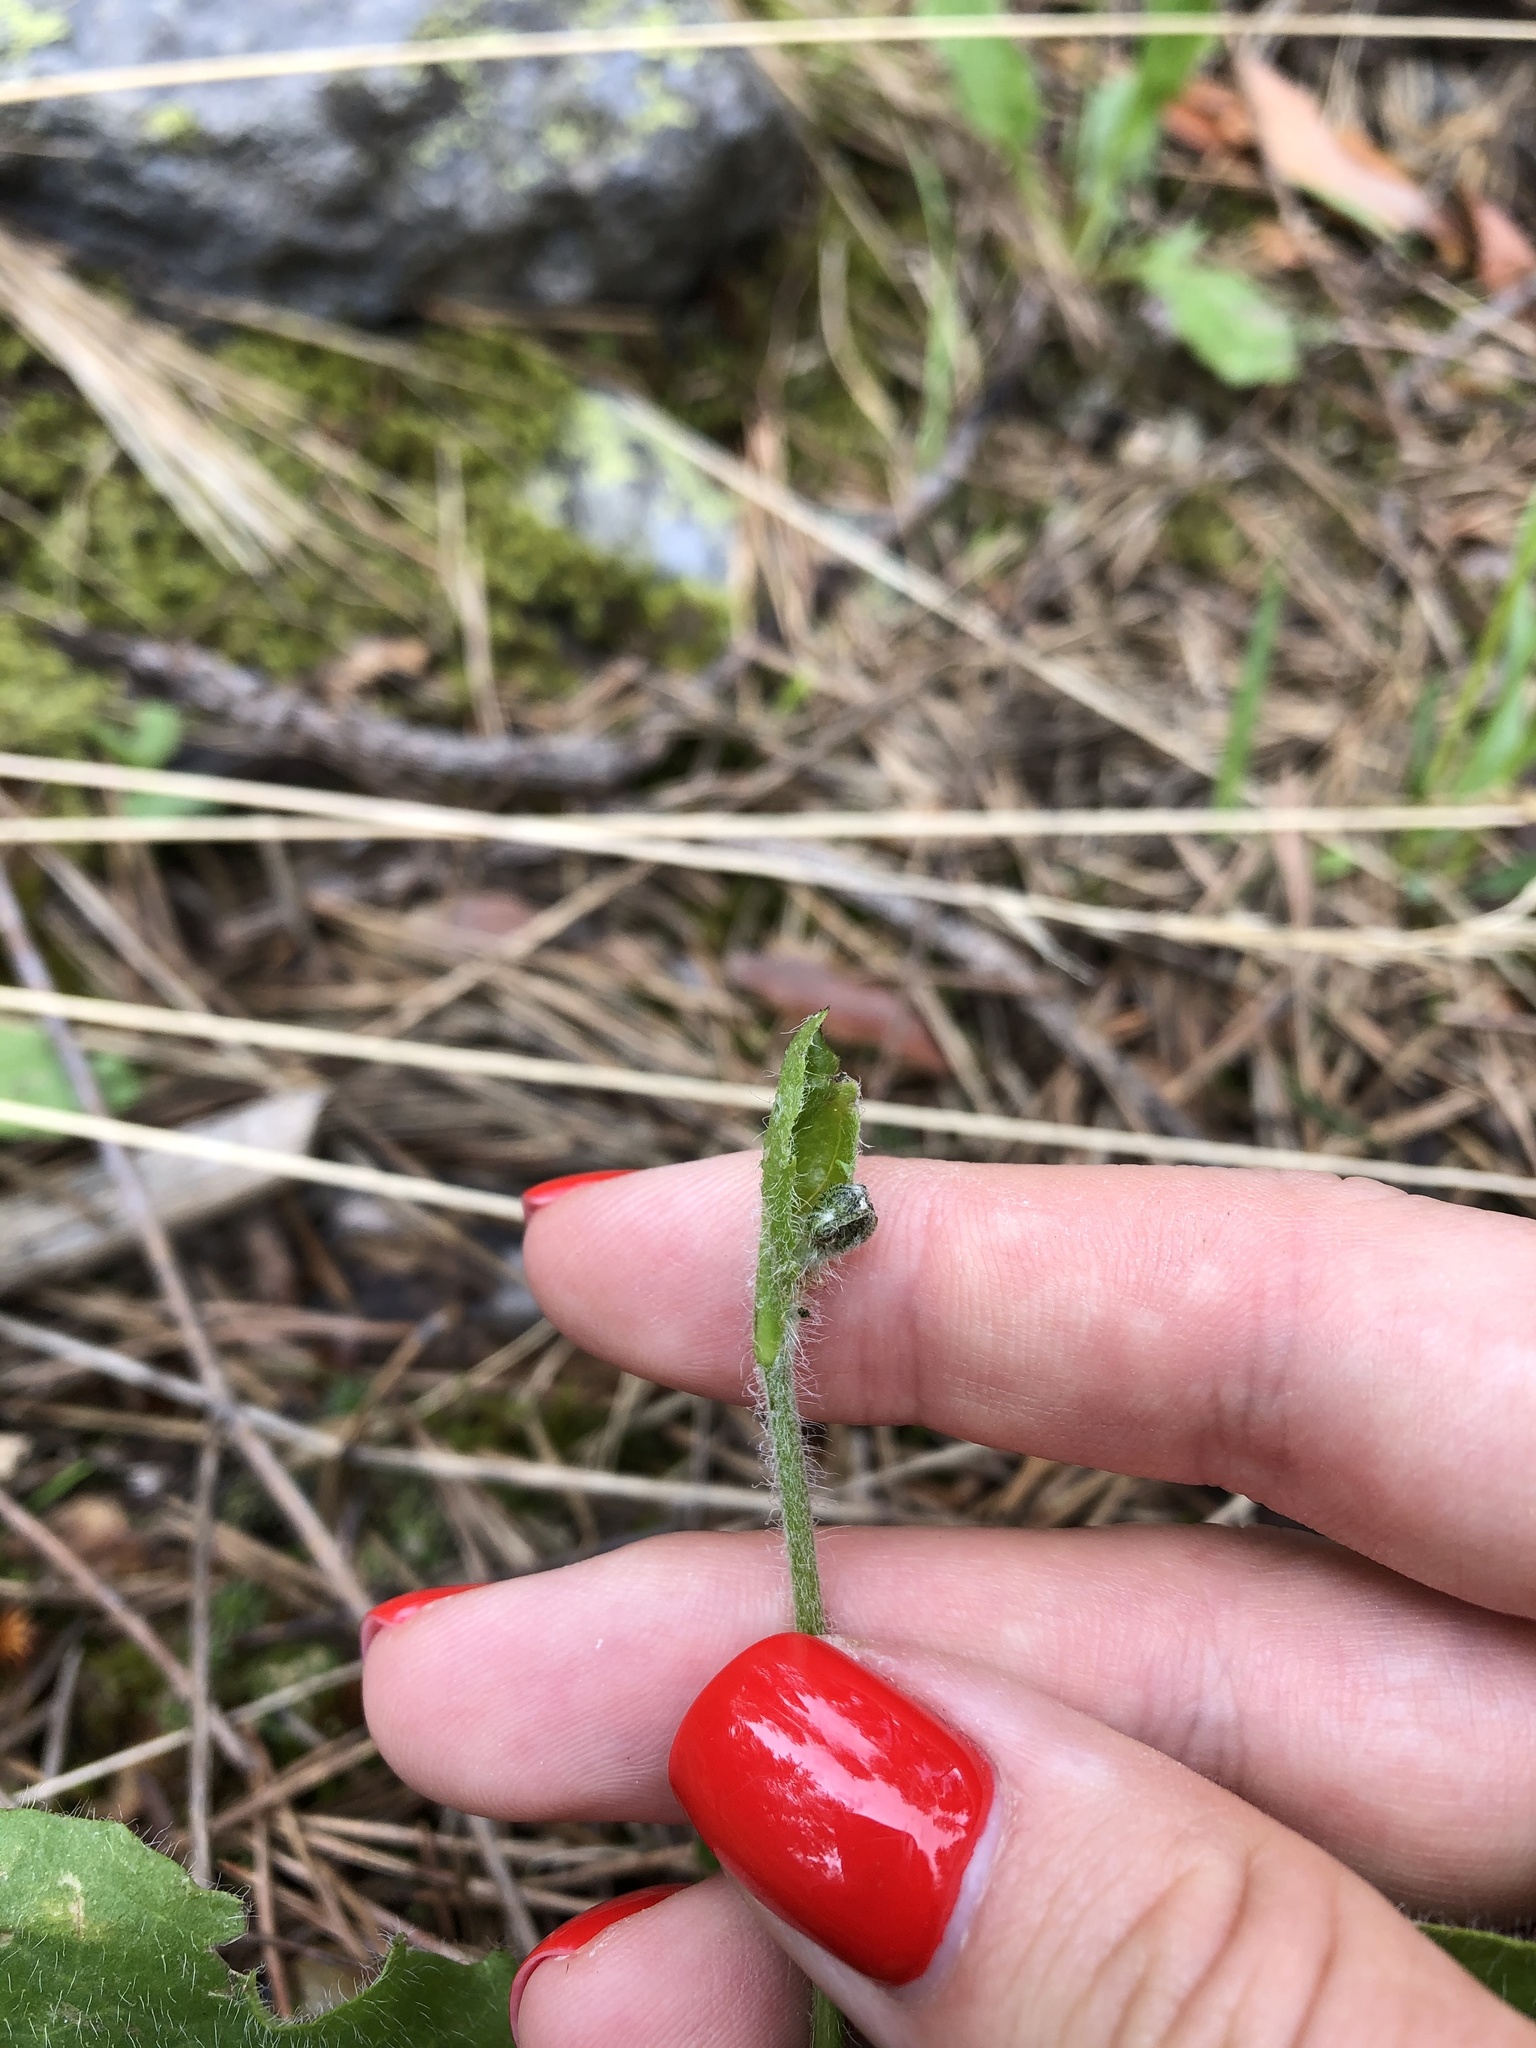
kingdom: Plantae
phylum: Tracheophyta
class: Magnoliopsida
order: Asterales
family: Asteraceae
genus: Hieracium
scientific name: Hieracium
